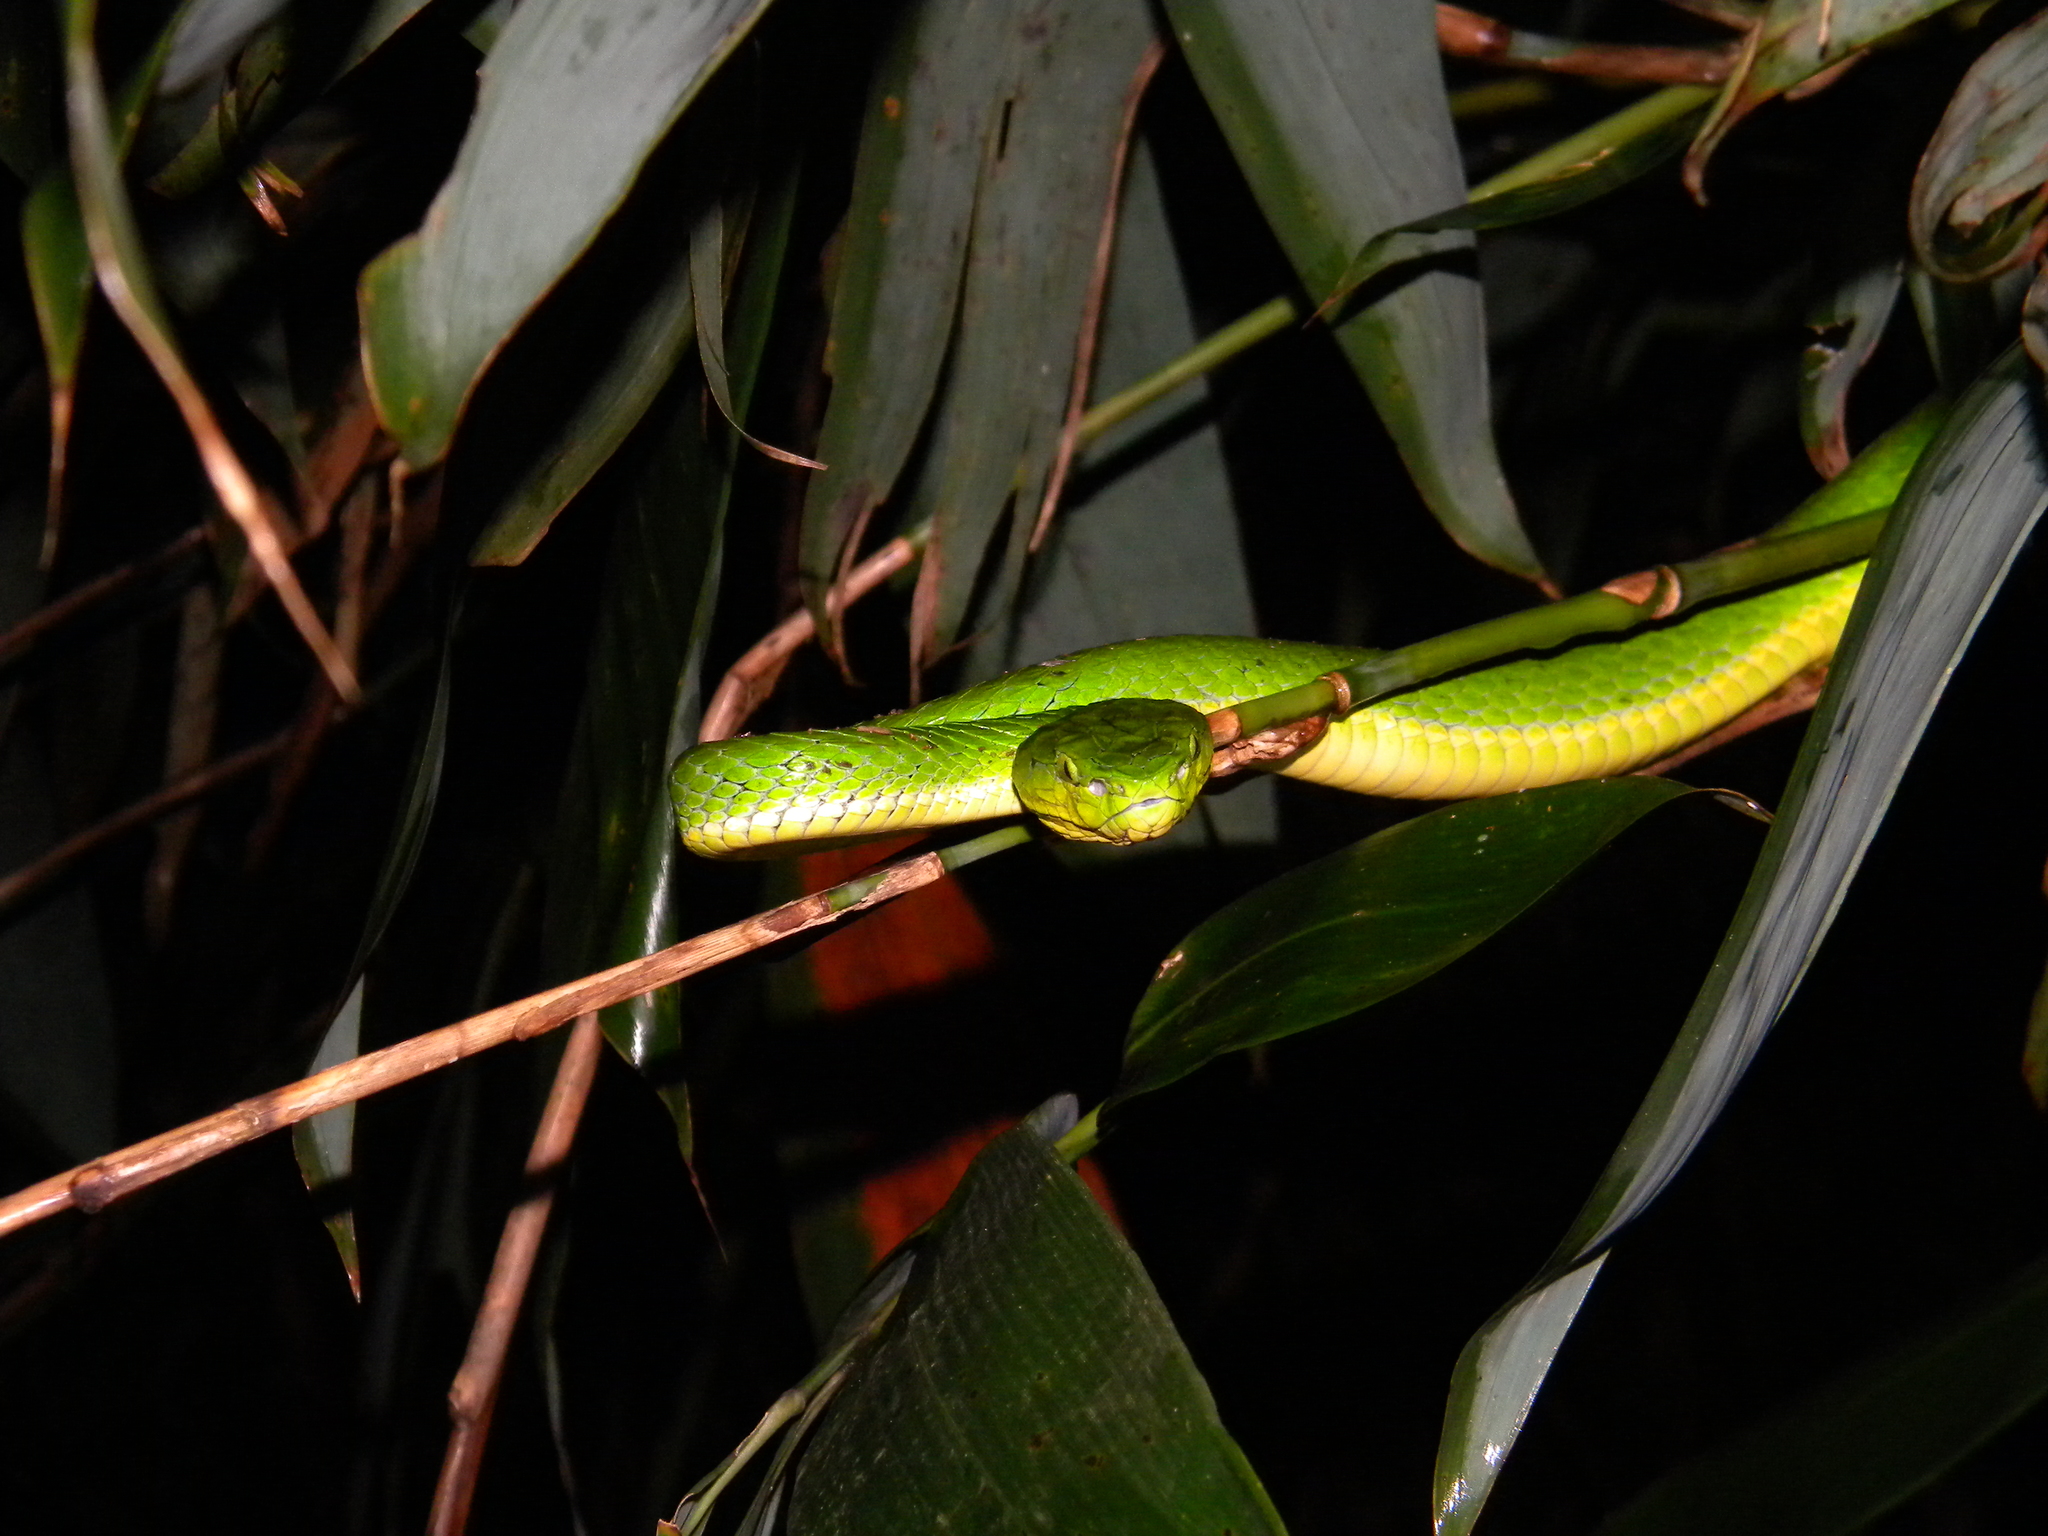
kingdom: Animalia
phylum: Chordata
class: Squamata
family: Viperidae
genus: Craspedocephalus
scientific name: Craspedocephalus peltopelor
